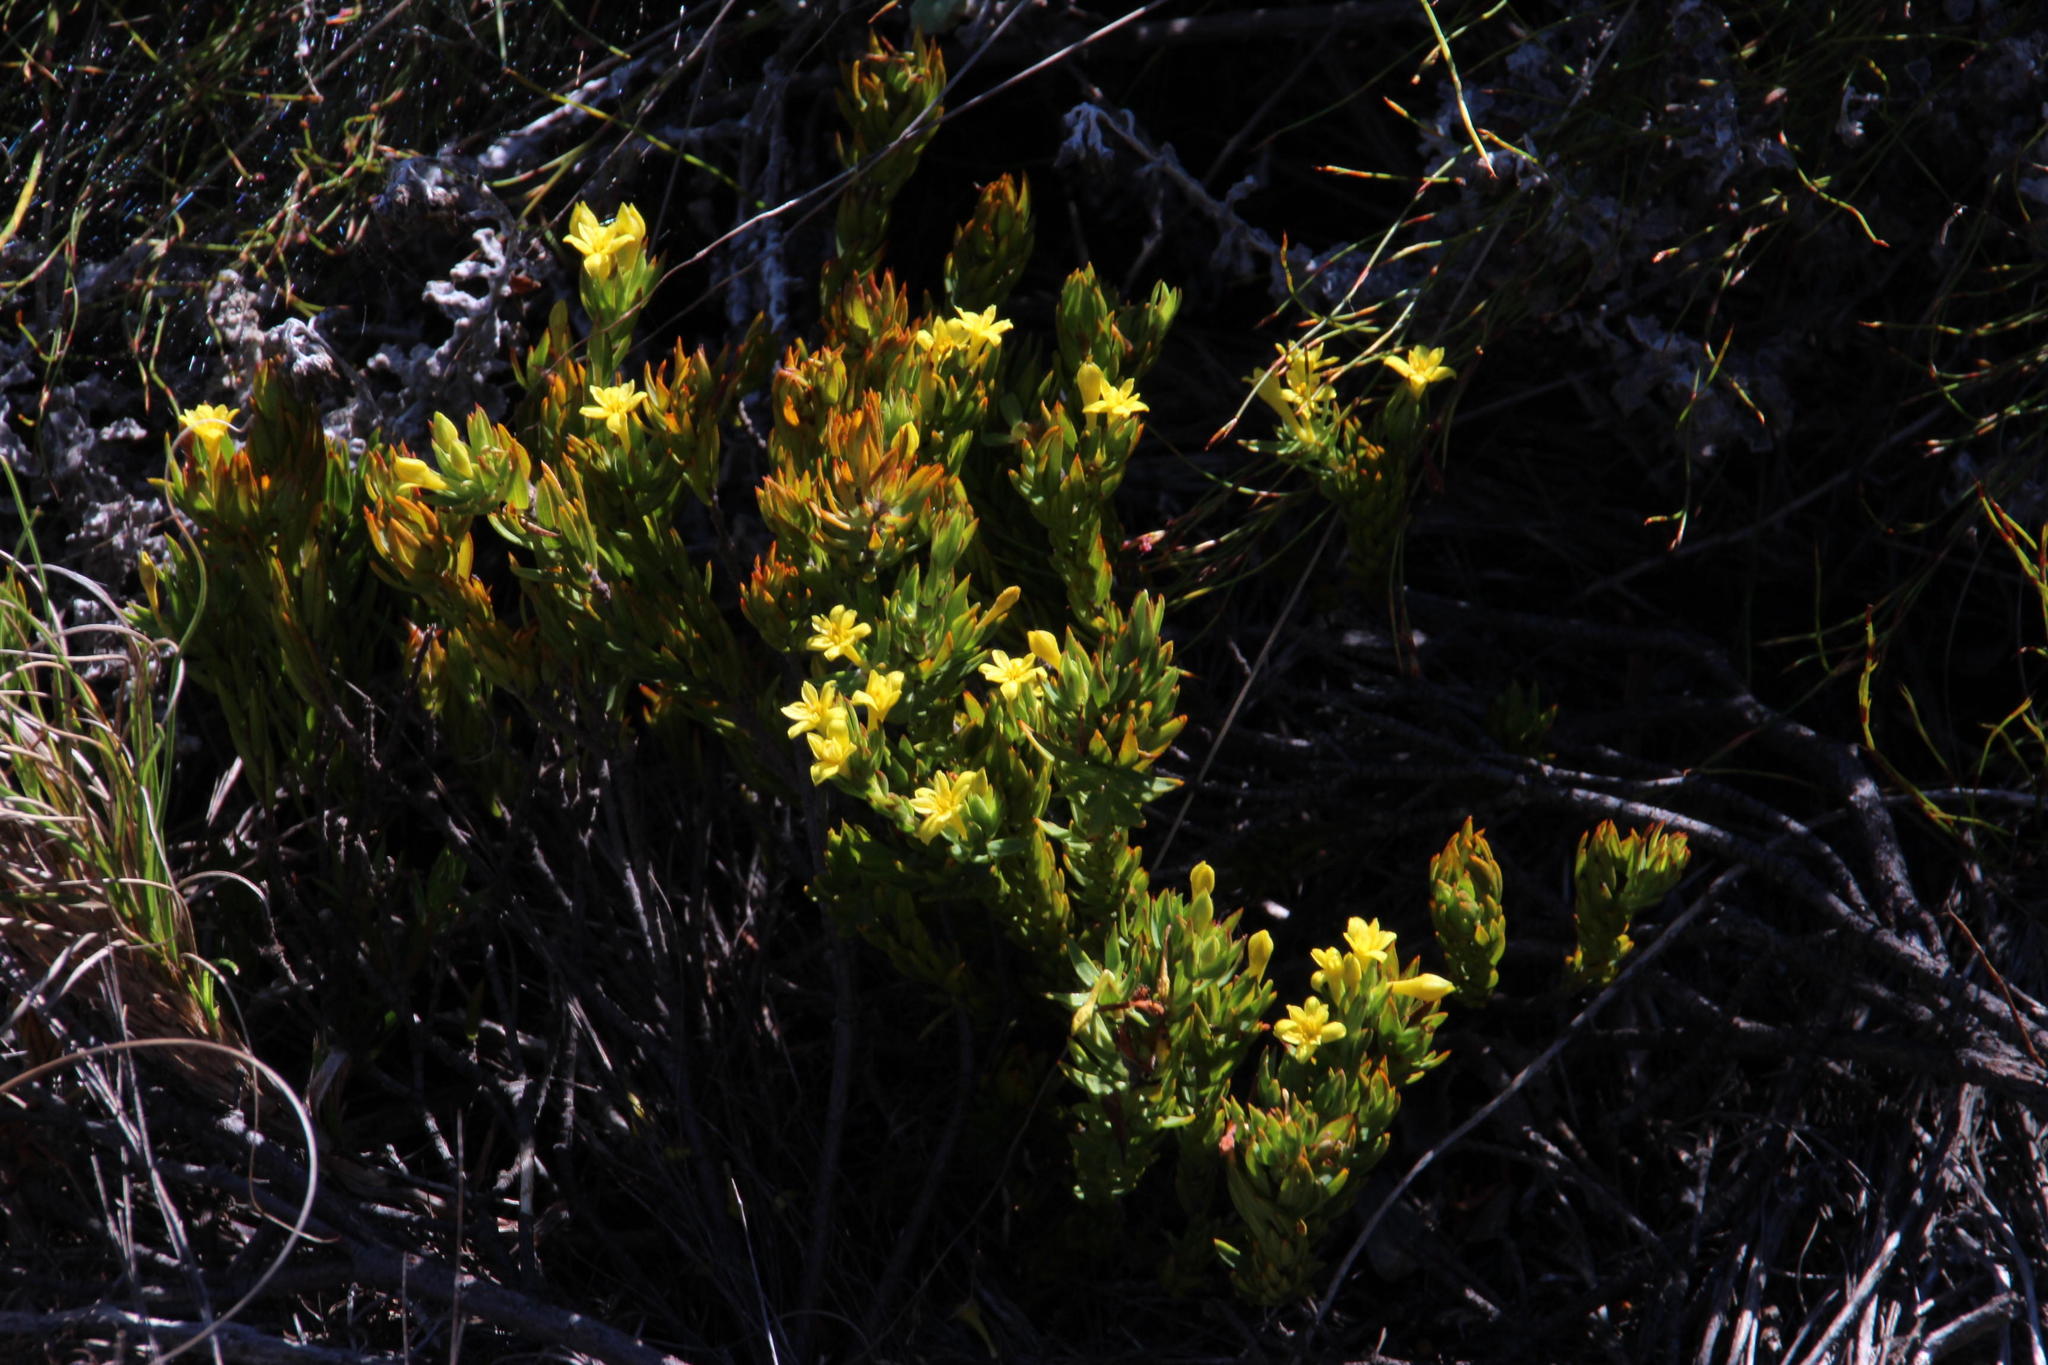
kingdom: Plantae
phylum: Tracheophyta
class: Magnoliopsida
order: Malvales
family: Thymelaeaceae
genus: Gnidia
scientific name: Gnidia juniperifolia
